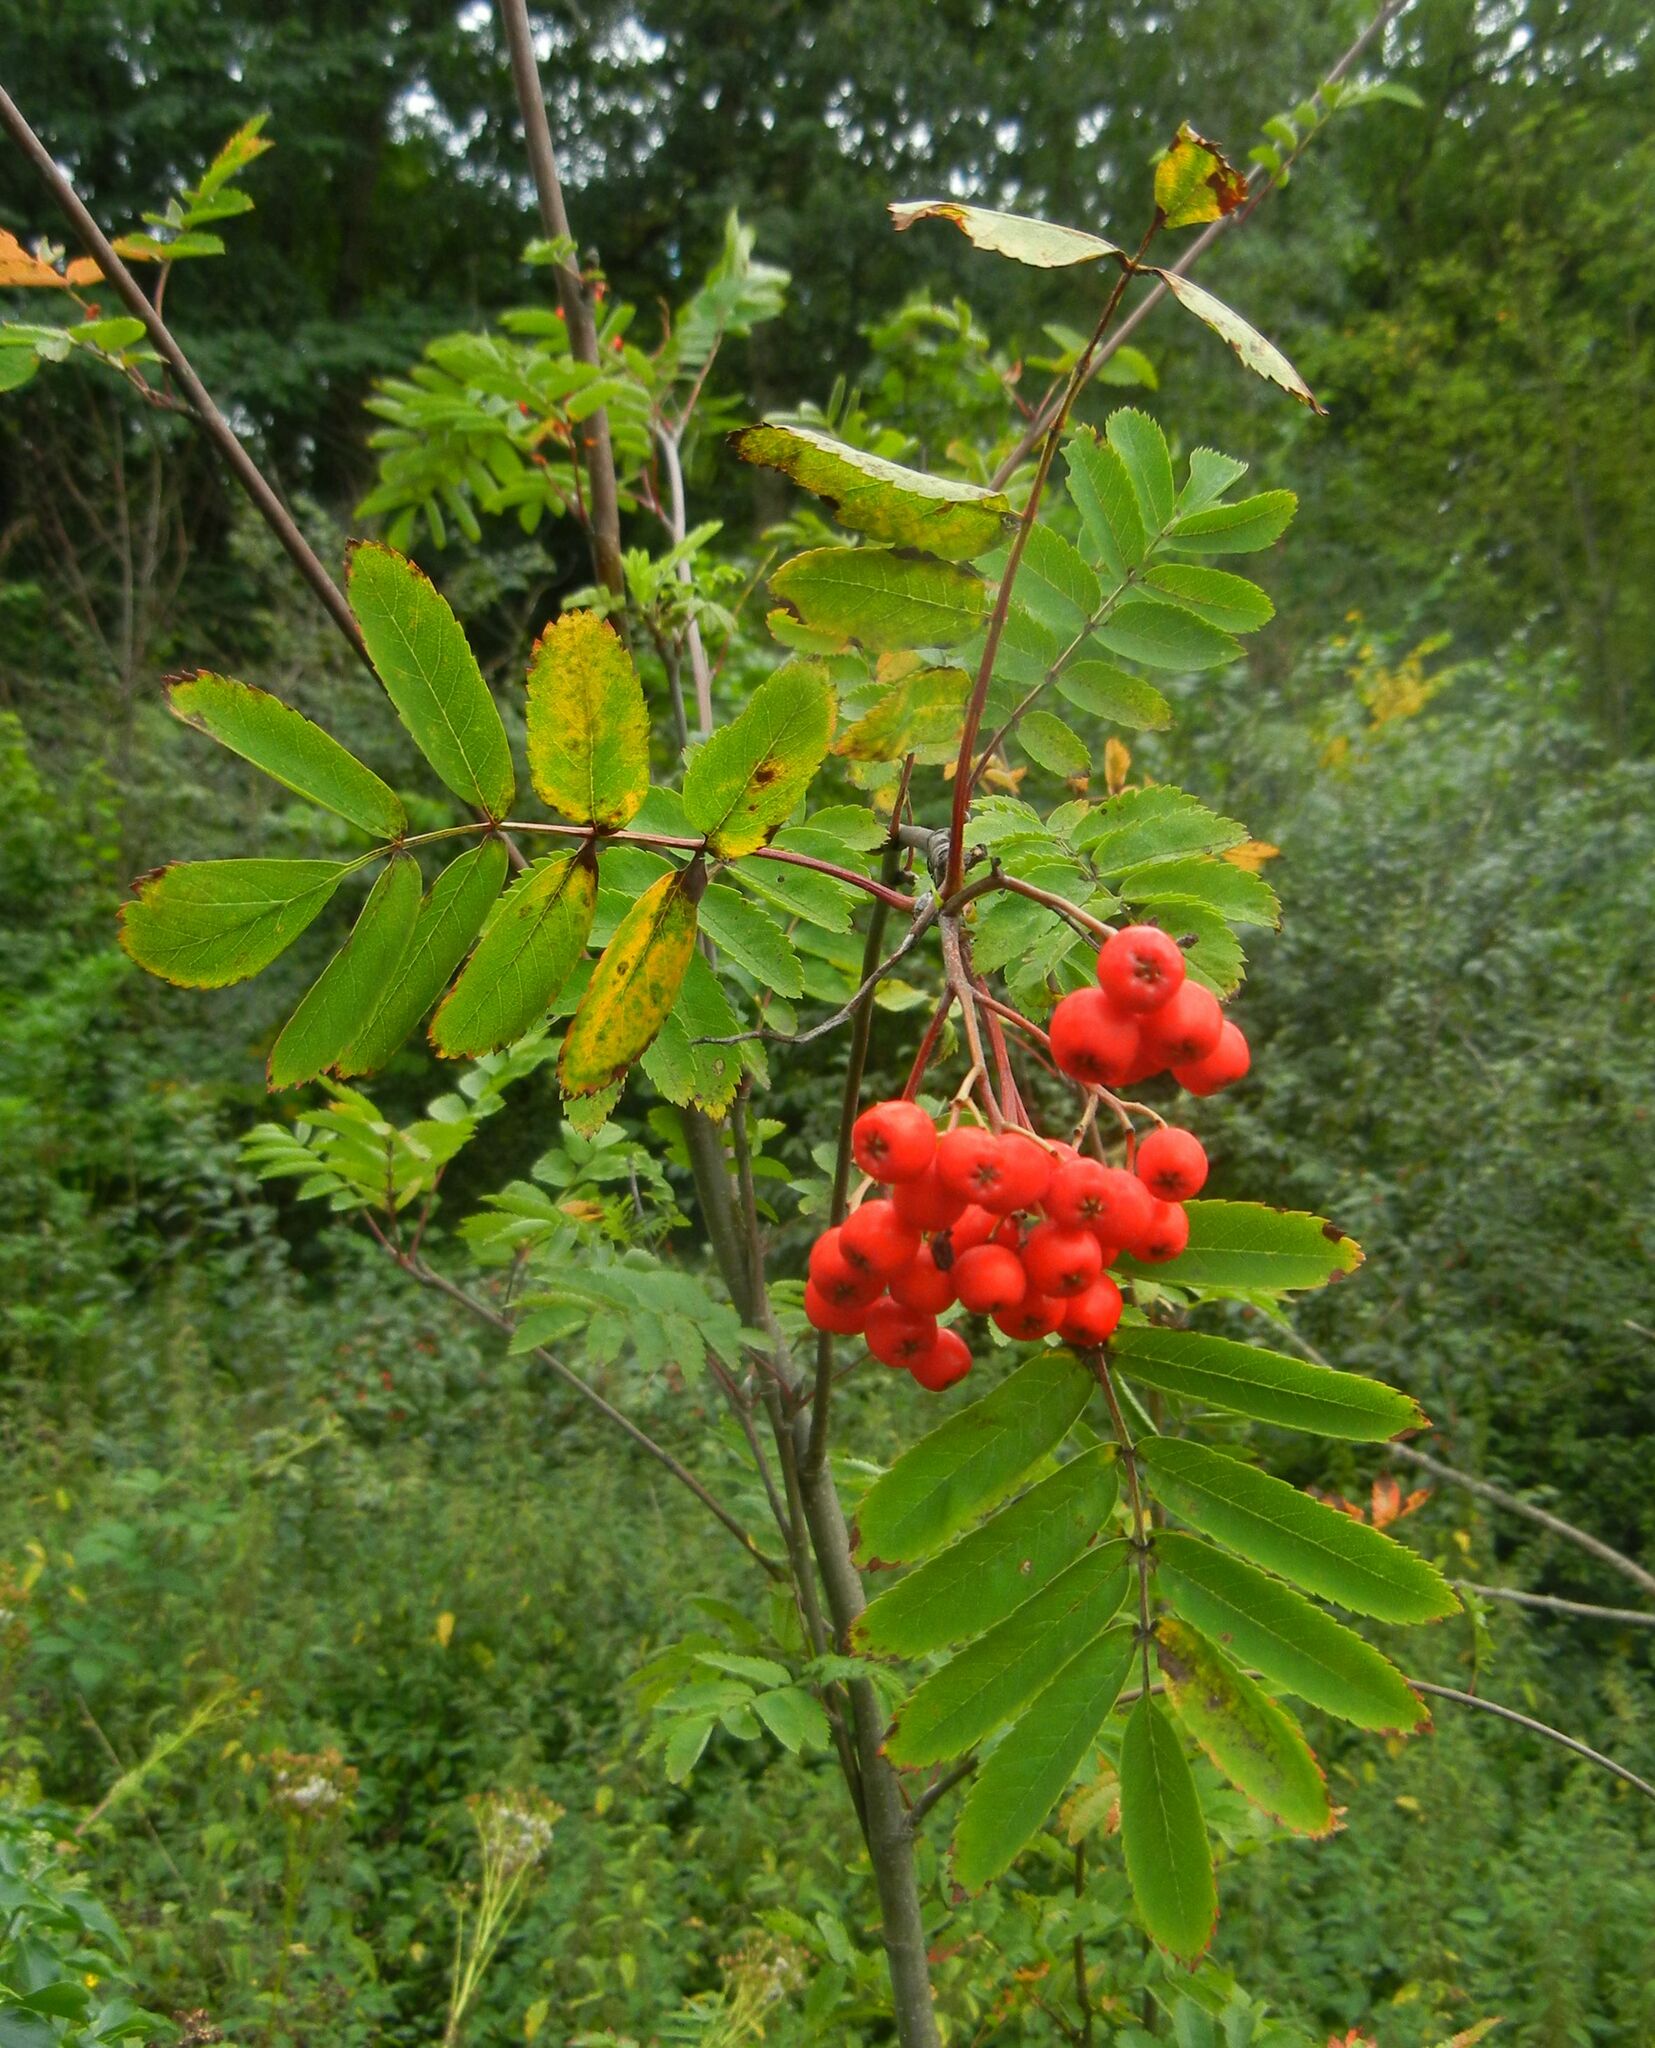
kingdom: Plantae
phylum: Tracheophyta
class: Magnoliopsida
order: Rosales
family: Rosaceae
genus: Sorbus
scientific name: Sorbus aucuparia
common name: Rowan
